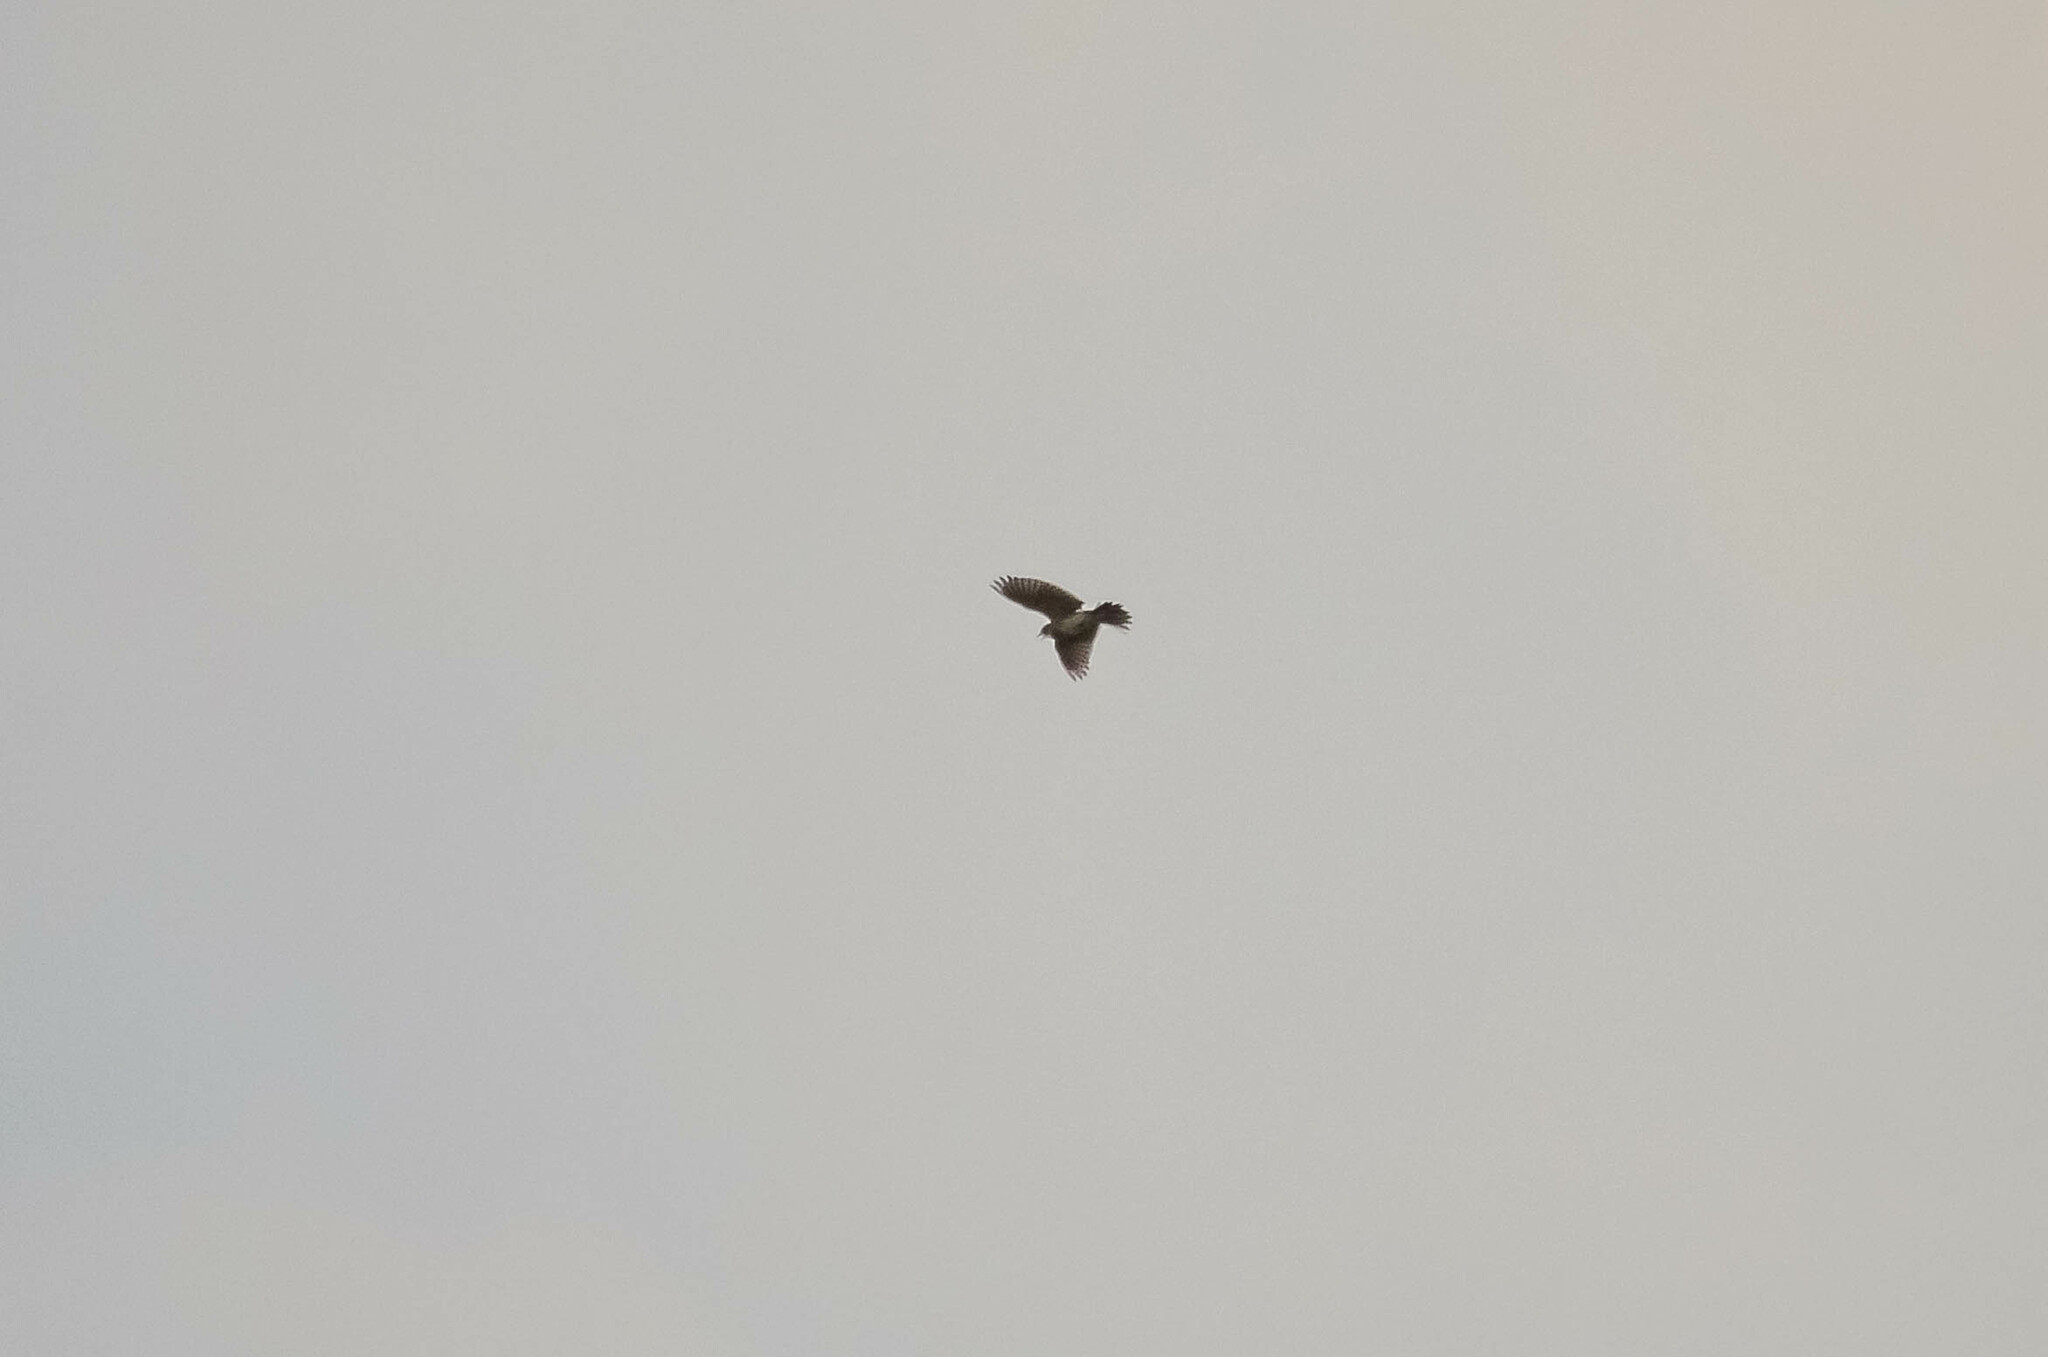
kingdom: Animalia
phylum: Chordata
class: Aves
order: Passeriformes
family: Alaudidae
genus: Alauda
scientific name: Alauda arvensis
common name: Eurasian skylark
